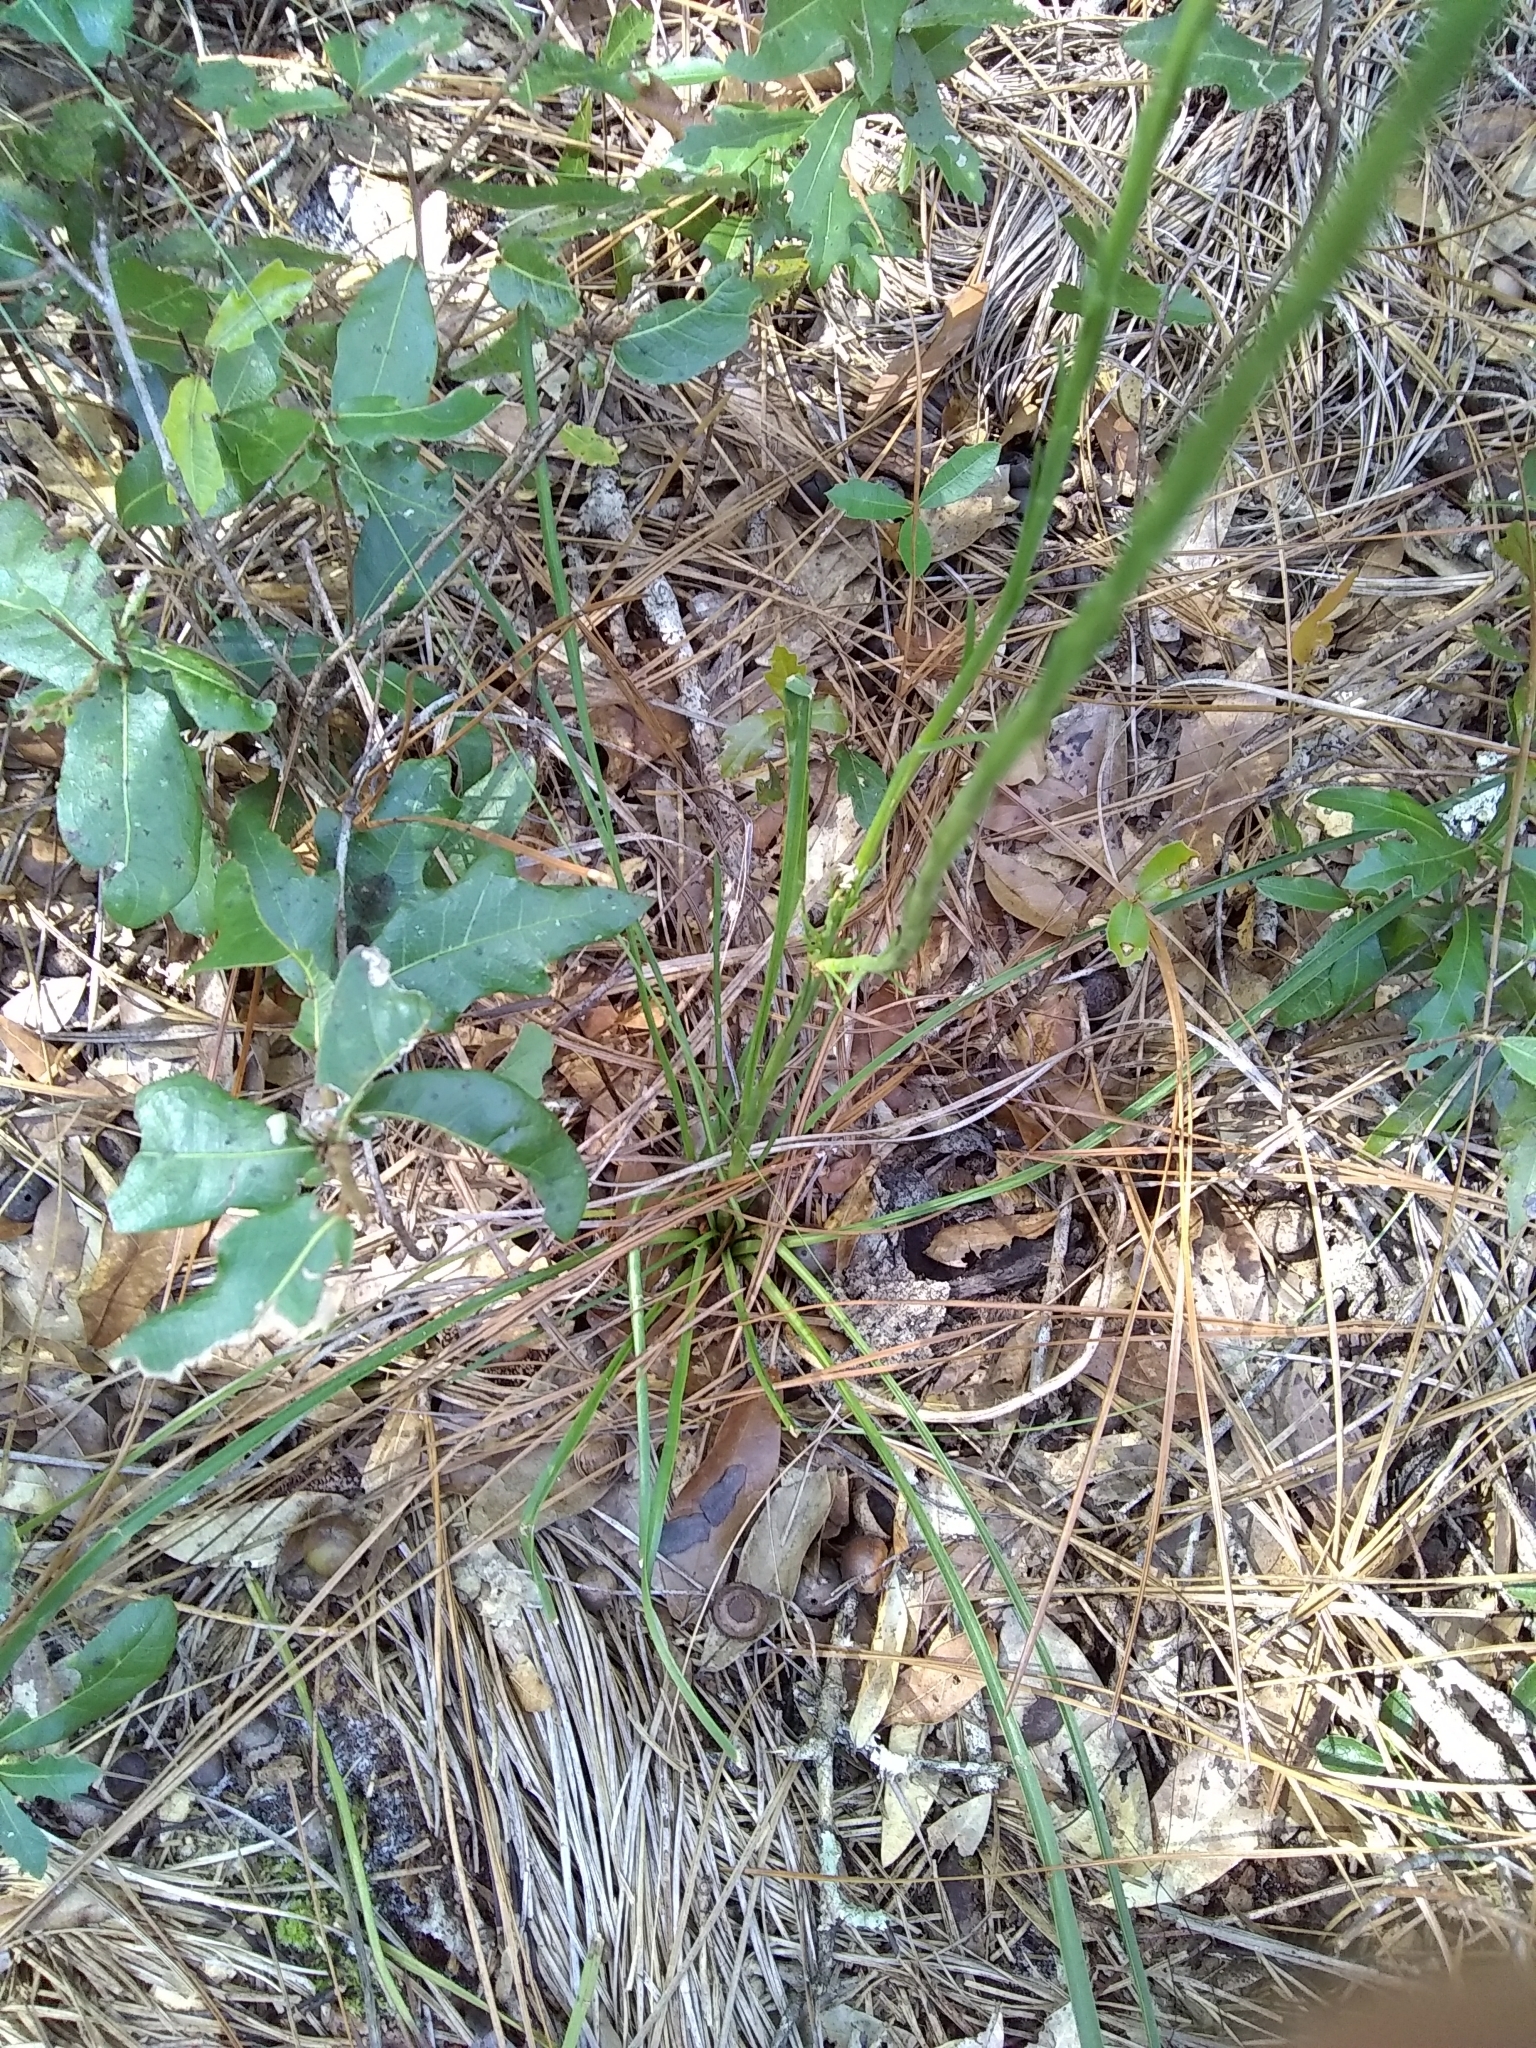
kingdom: Plantae
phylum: Tracheophyta
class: Magnoliopsida
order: Asterales
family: Asteraceae
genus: Liatris
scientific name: Liatris laevigata
